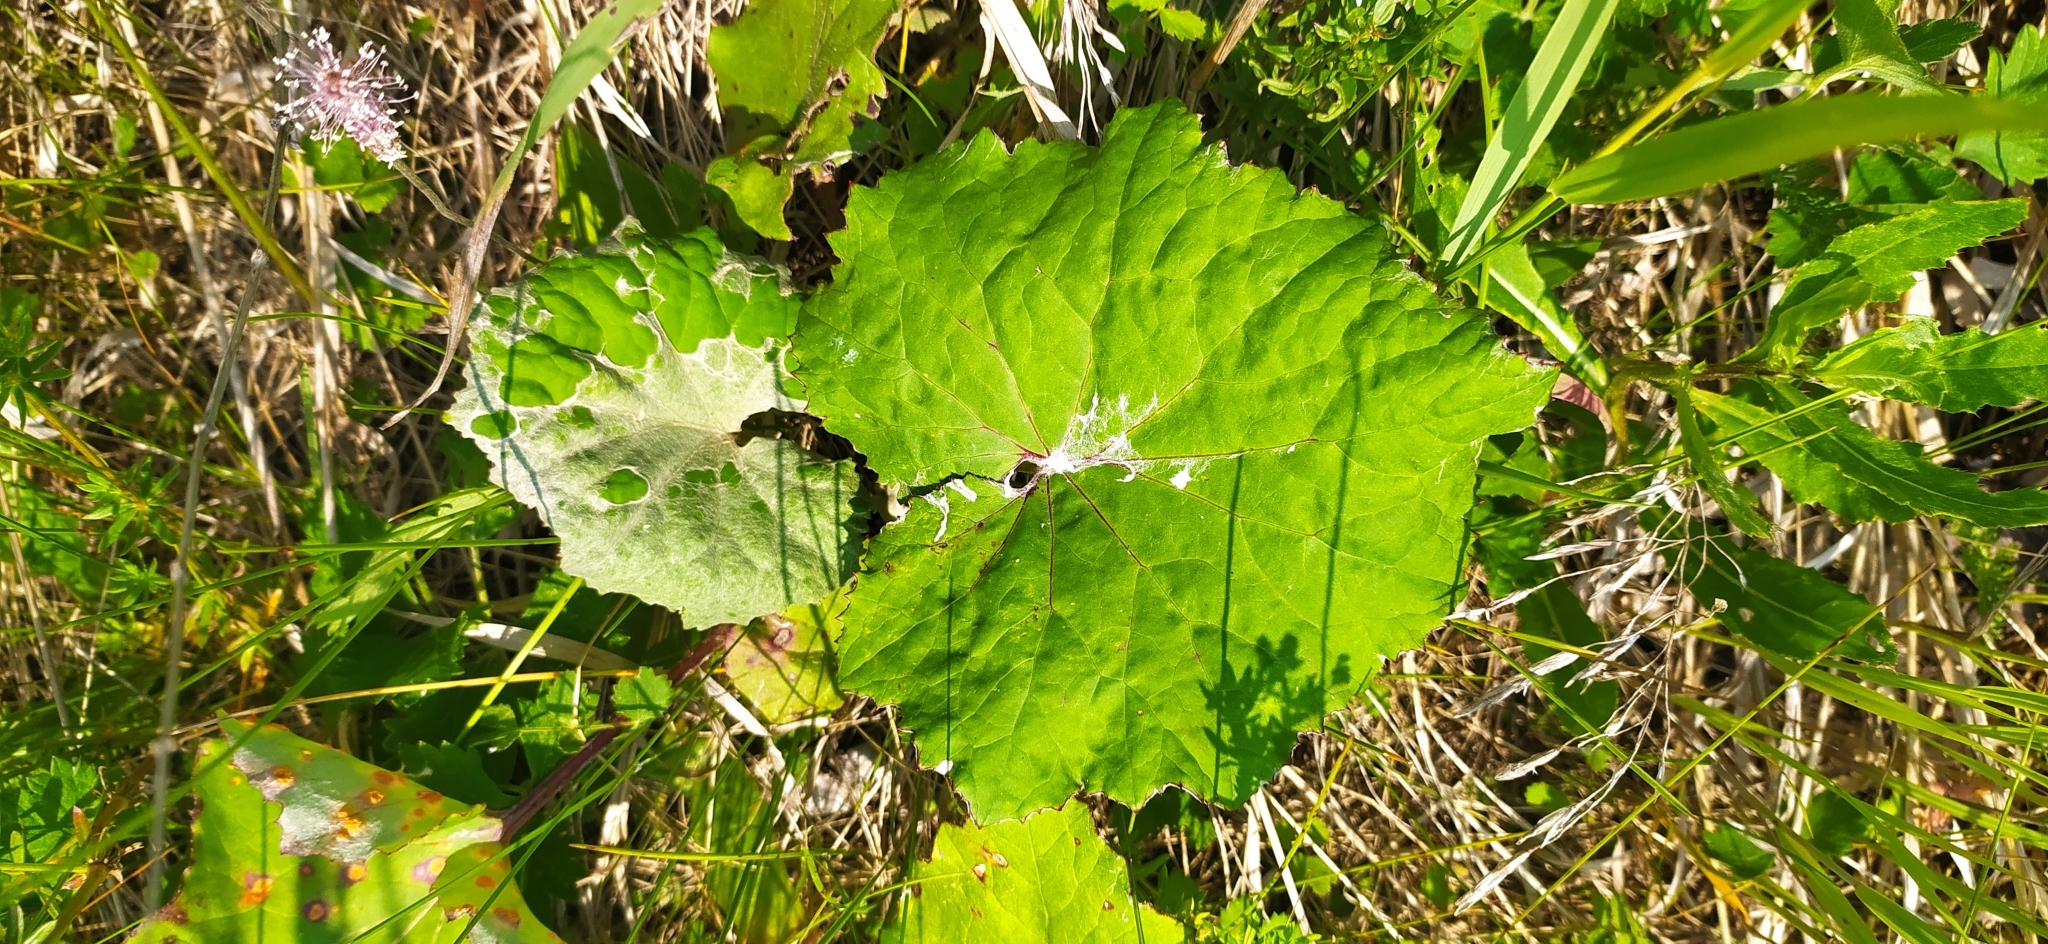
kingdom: Plantae
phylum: Tracheophyta
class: Magnoliopsida
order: Asterales
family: Asteraceae
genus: Tussilago
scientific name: Tussilago farfara
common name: Coltsfoot
